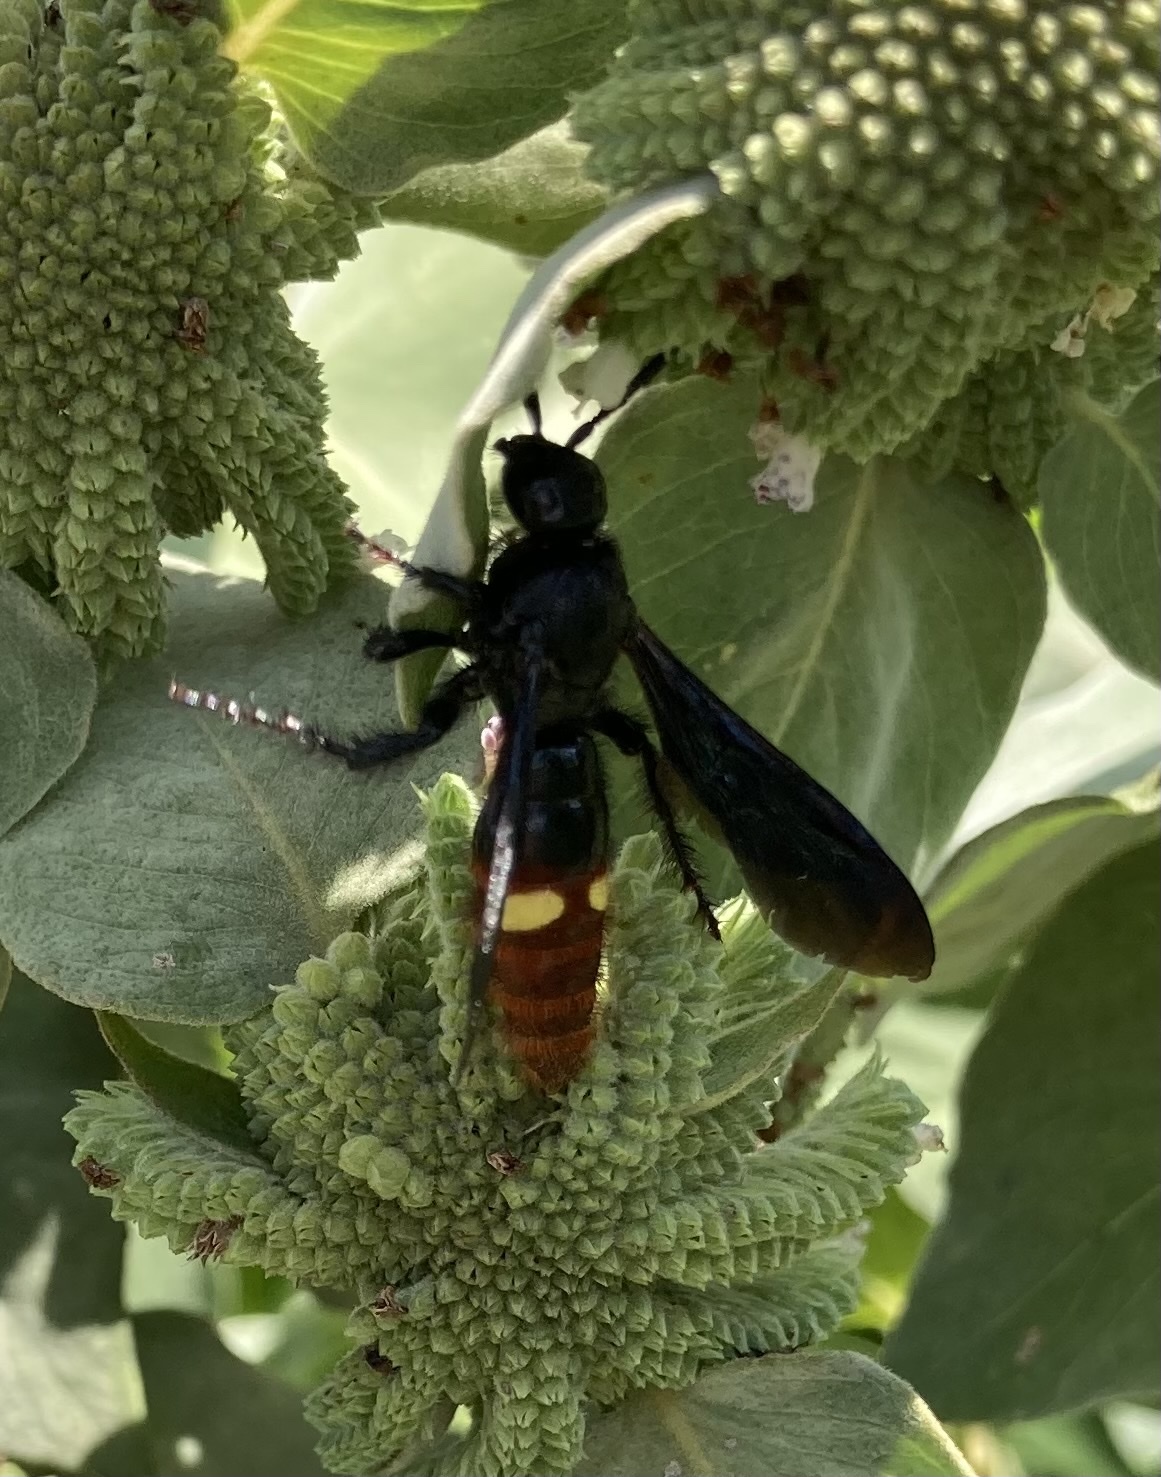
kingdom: Animalia
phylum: Arthropoda
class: Insecta
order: Hymenoptera
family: Scoliidae
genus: Scolia
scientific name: Scolia dubia
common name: Blue-winged scoliid wasp
